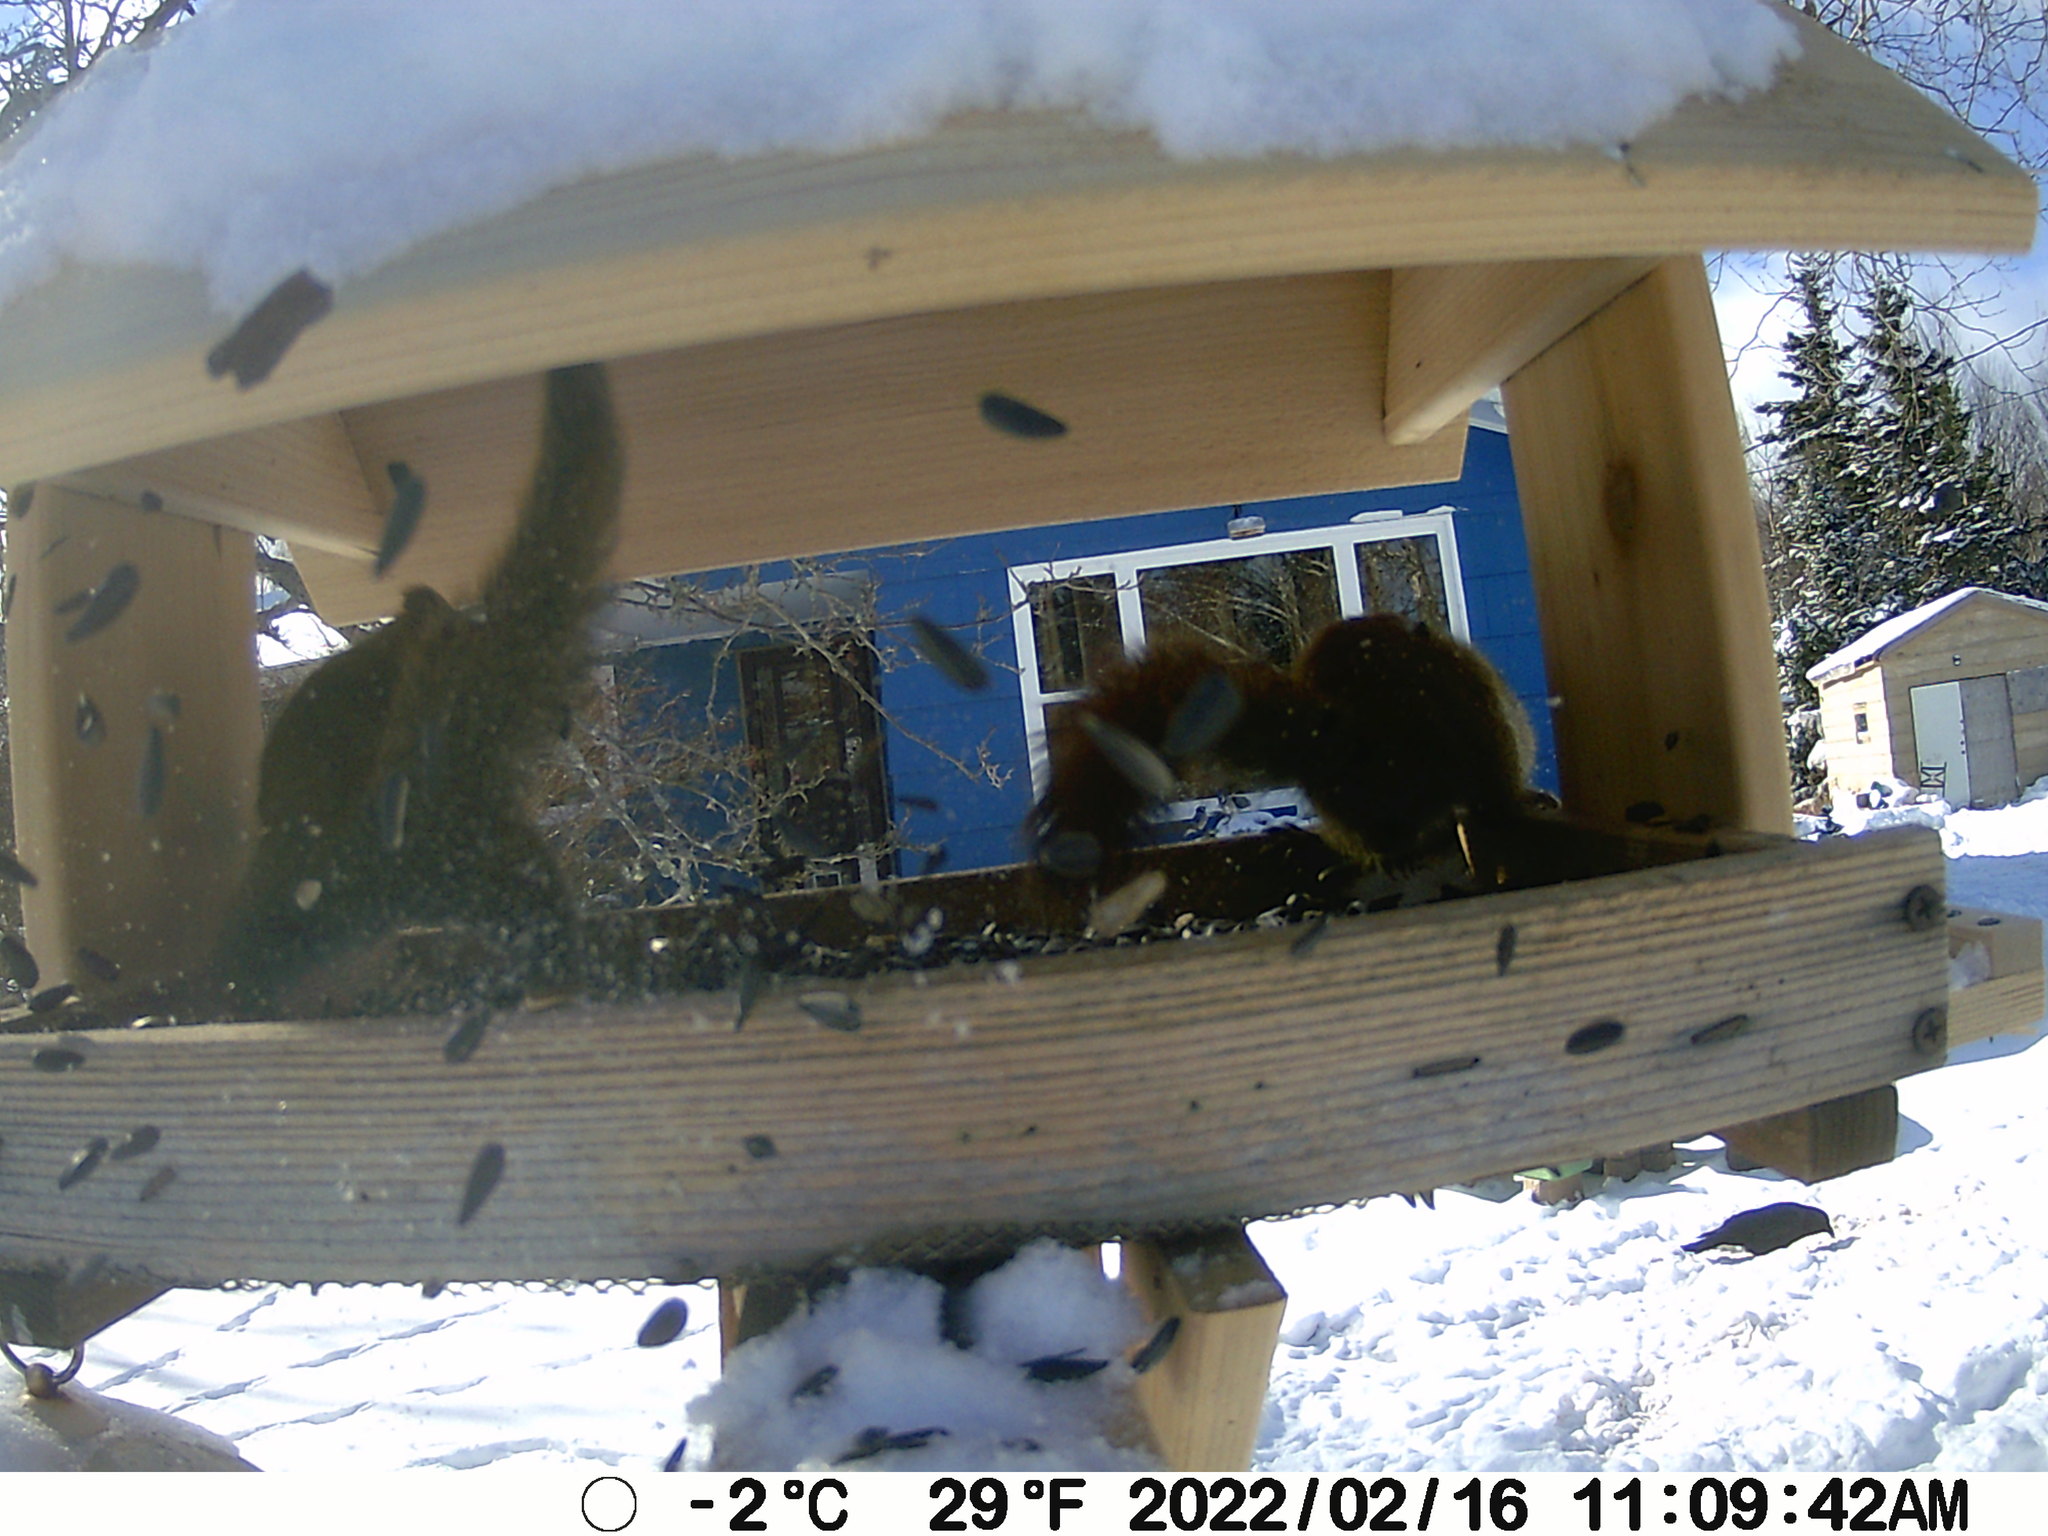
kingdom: Animalia
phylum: Chordata
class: Mammalia
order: Rodentia
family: Sciuridae
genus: Tamiasciurus
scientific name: Tamiasciurus hudsonicus
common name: Red squirrel
